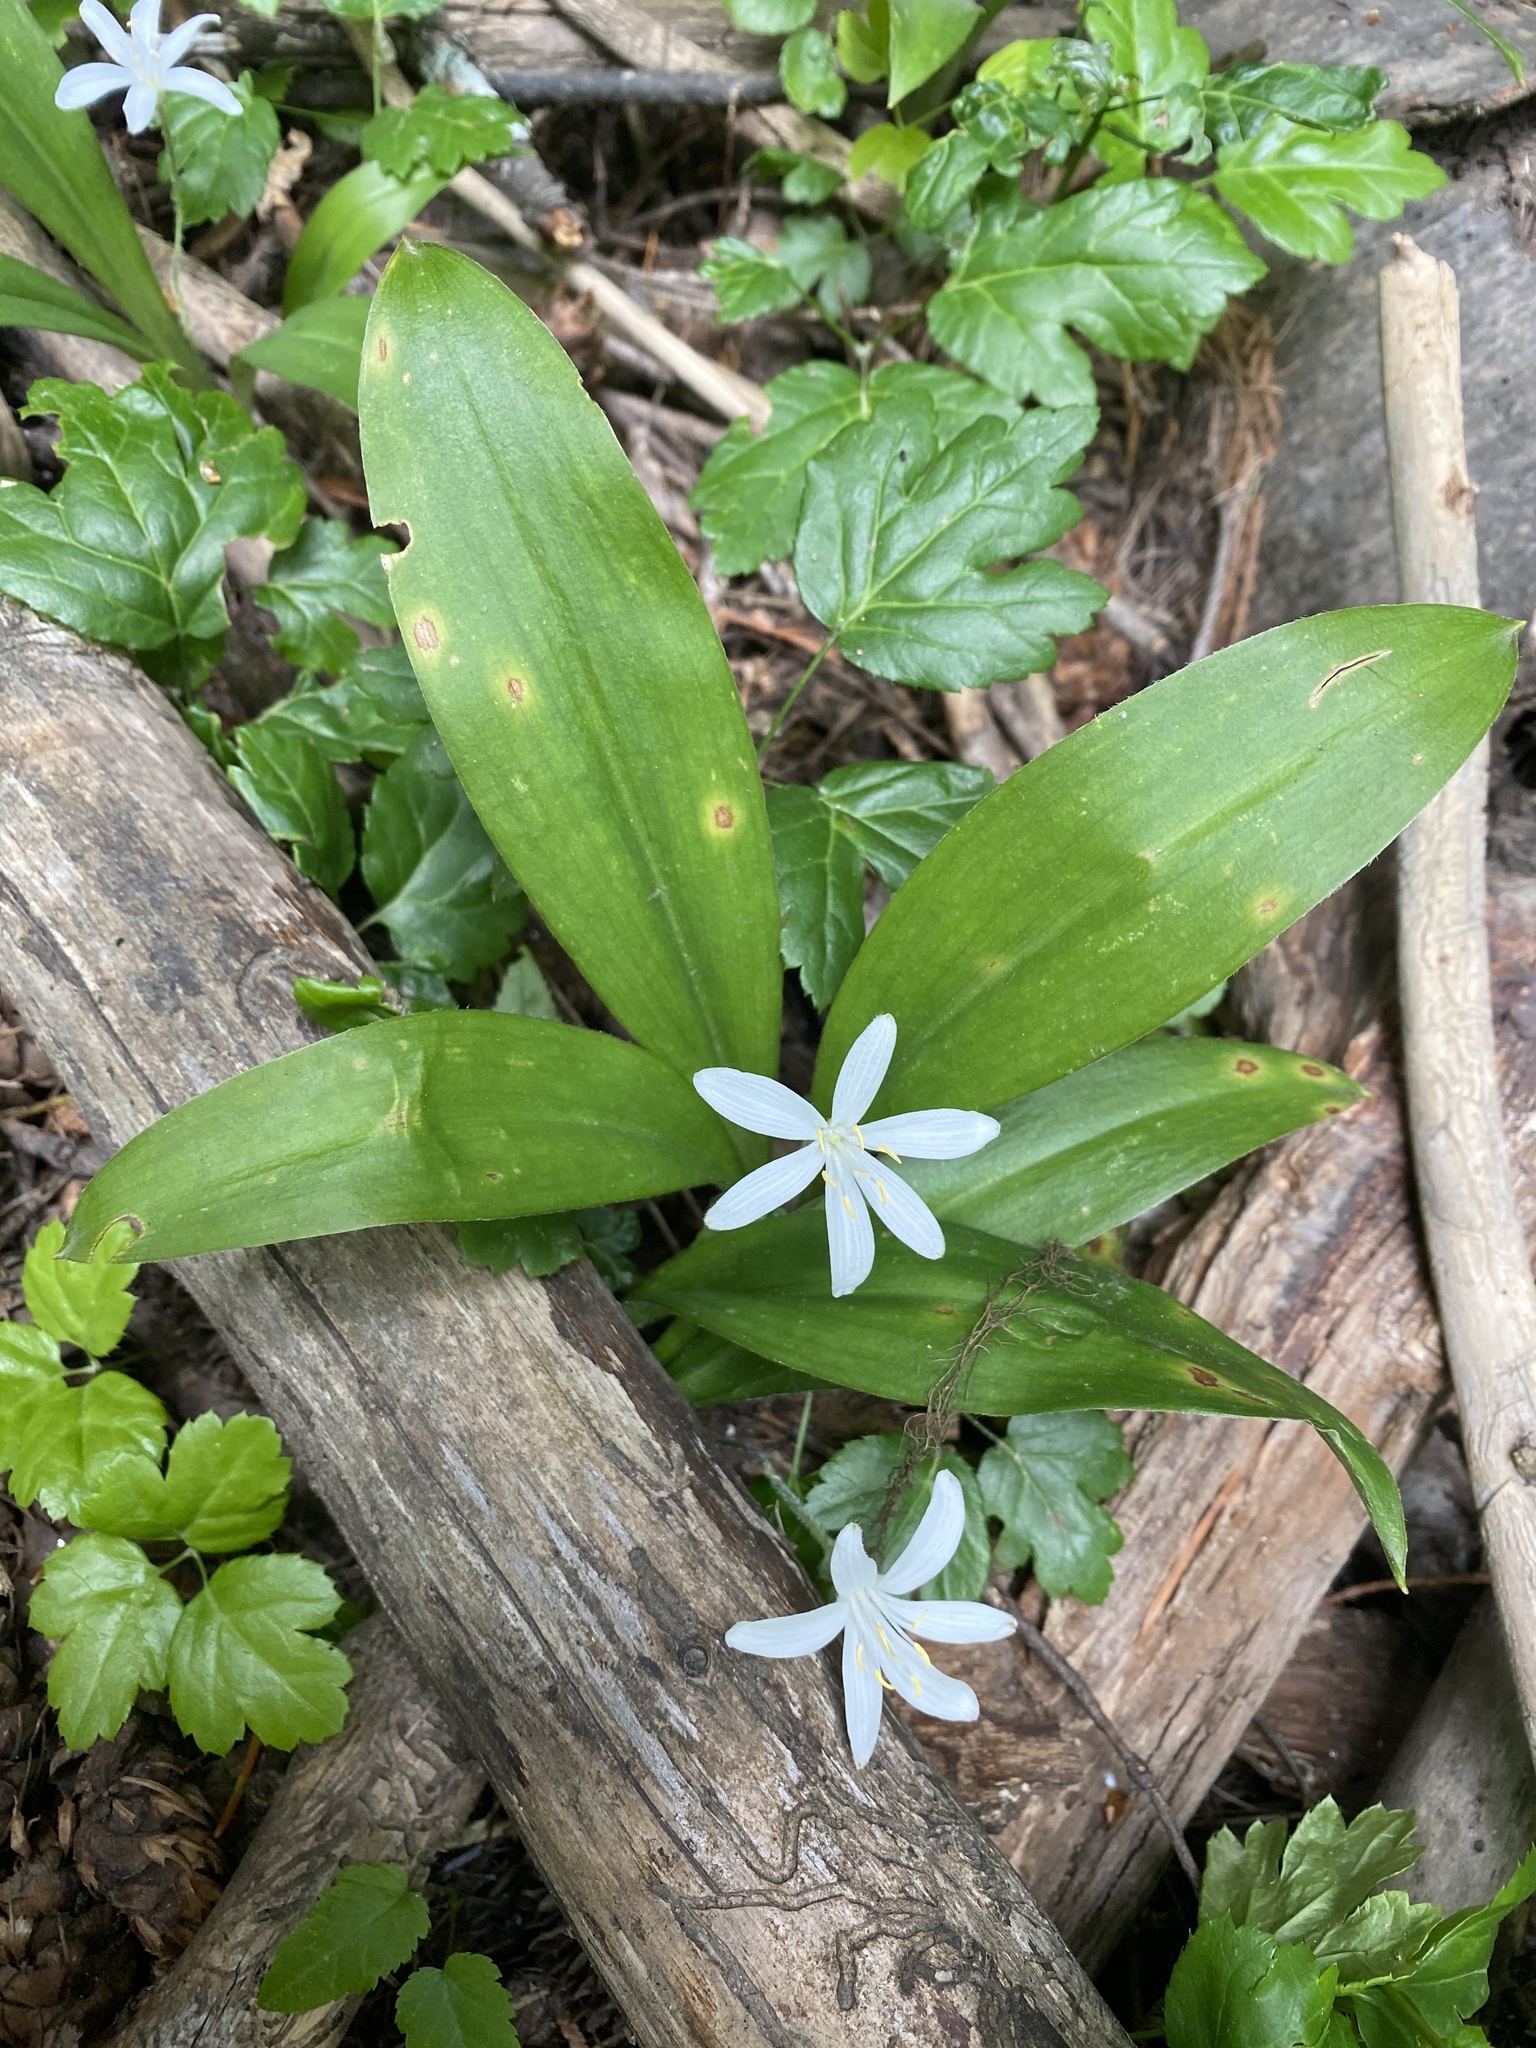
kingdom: Plantae
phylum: Tracheophyta
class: Liliopsida
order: Liliales
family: Liliaceae
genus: Clintonia
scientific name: Clintonia uniflora
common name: Queen's cup
